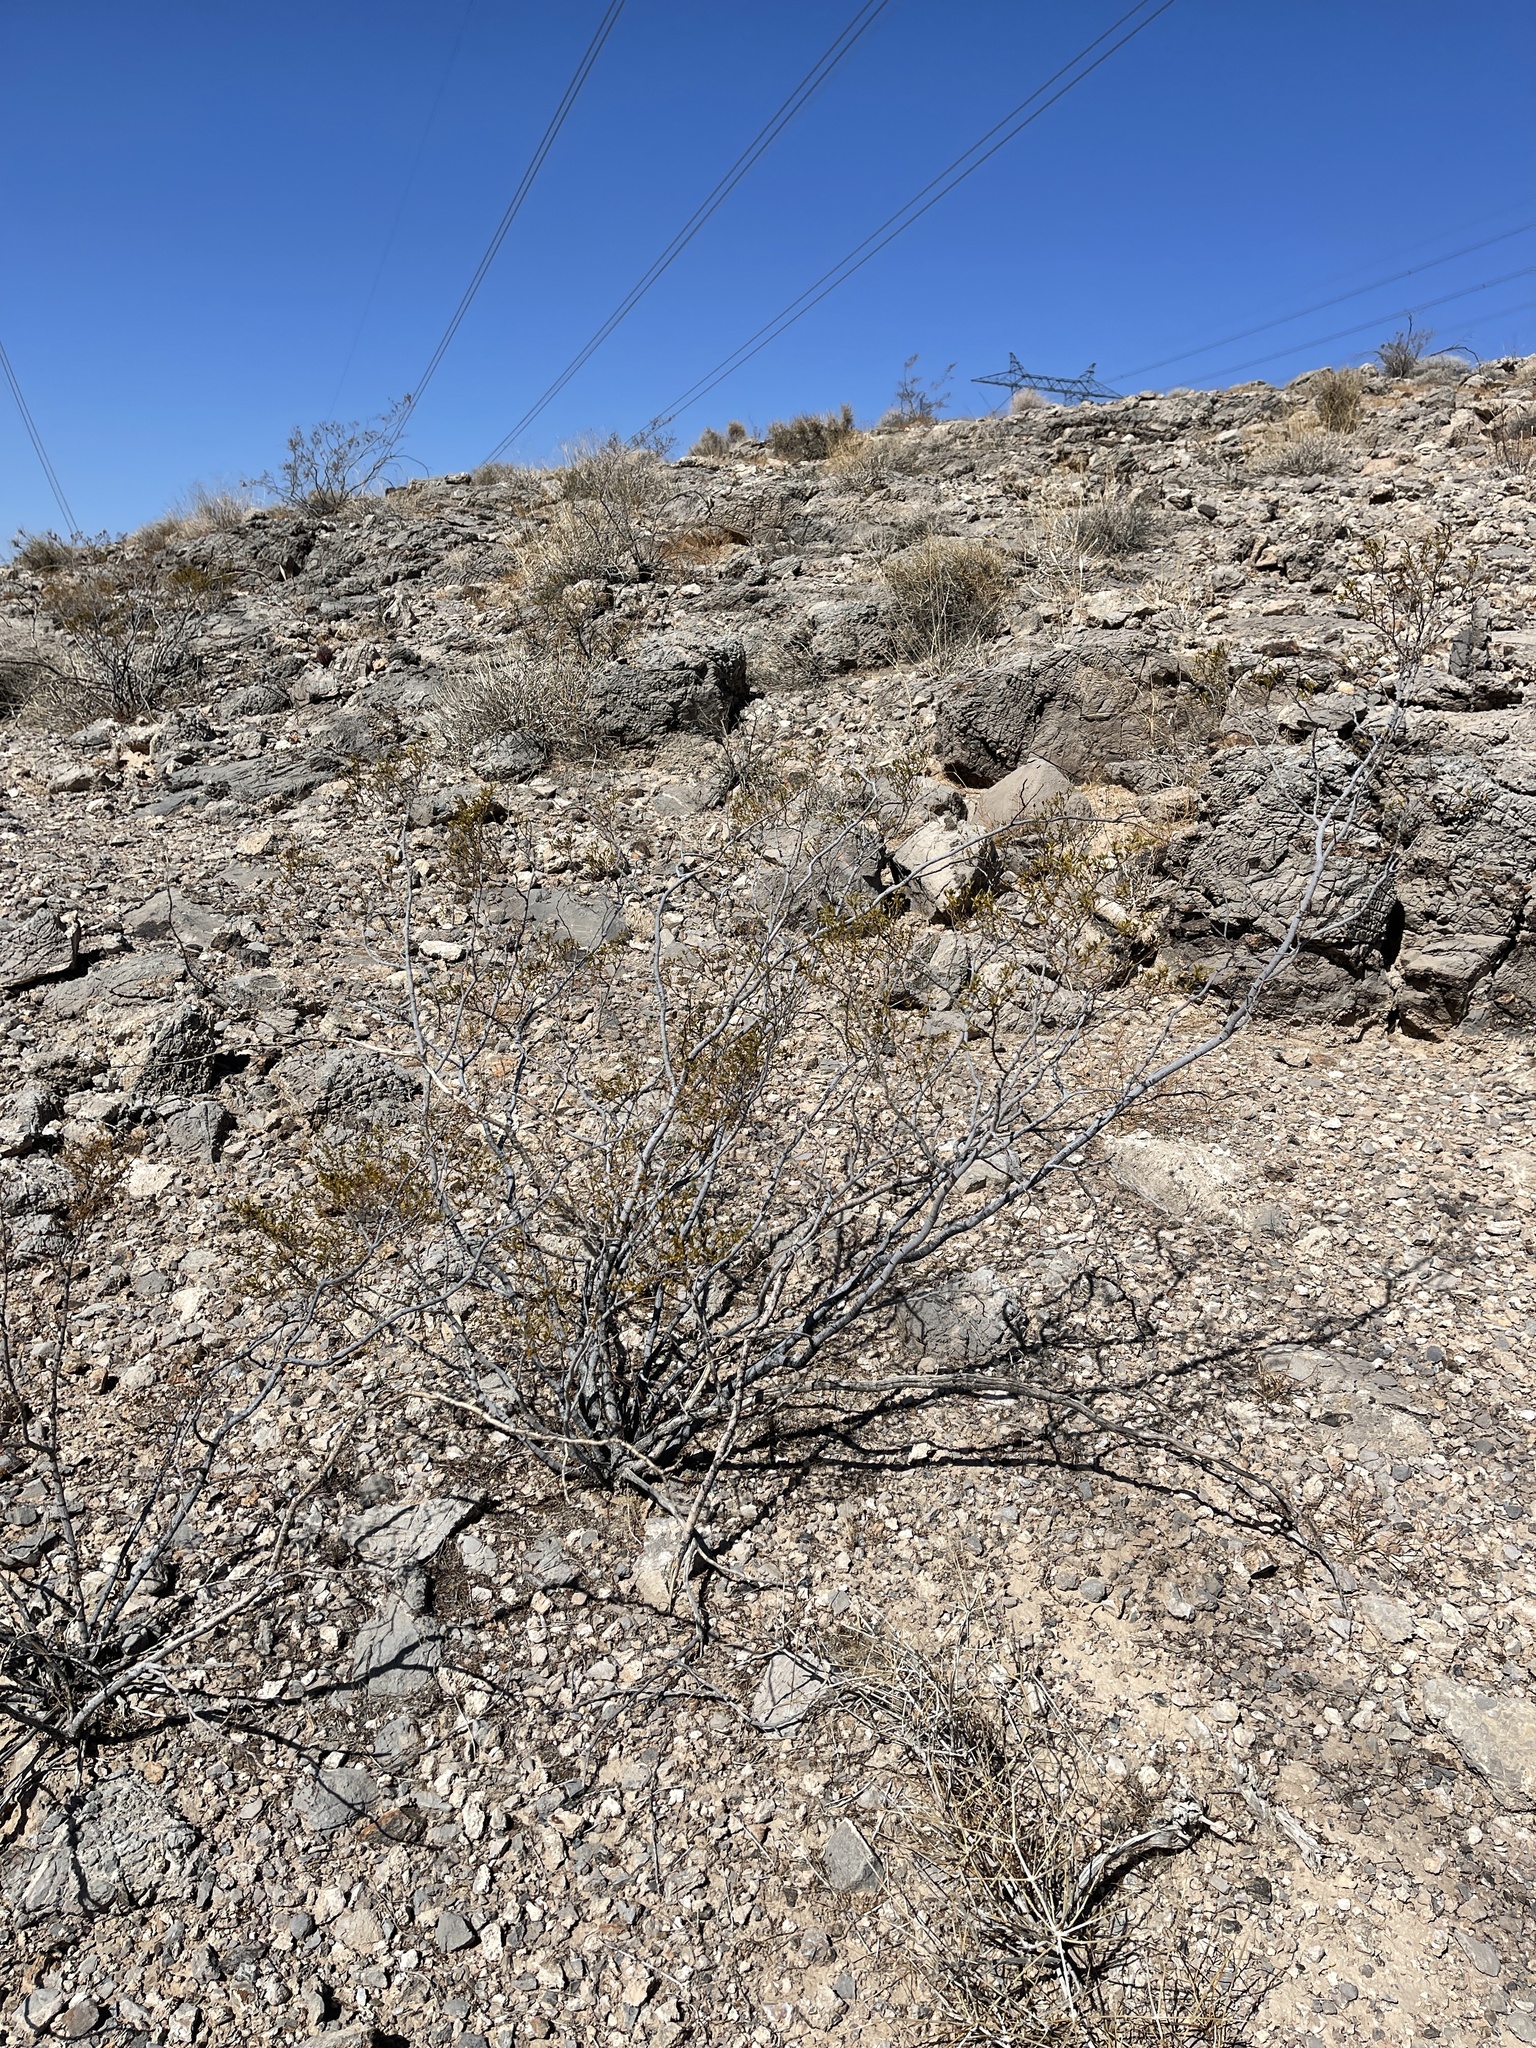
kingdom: Plantae
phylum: Tracheophyta
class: Magnoliopsida
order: Zygophyllales
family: Zygophyllaceae
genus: Larrea
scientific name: Larrea tridentata
